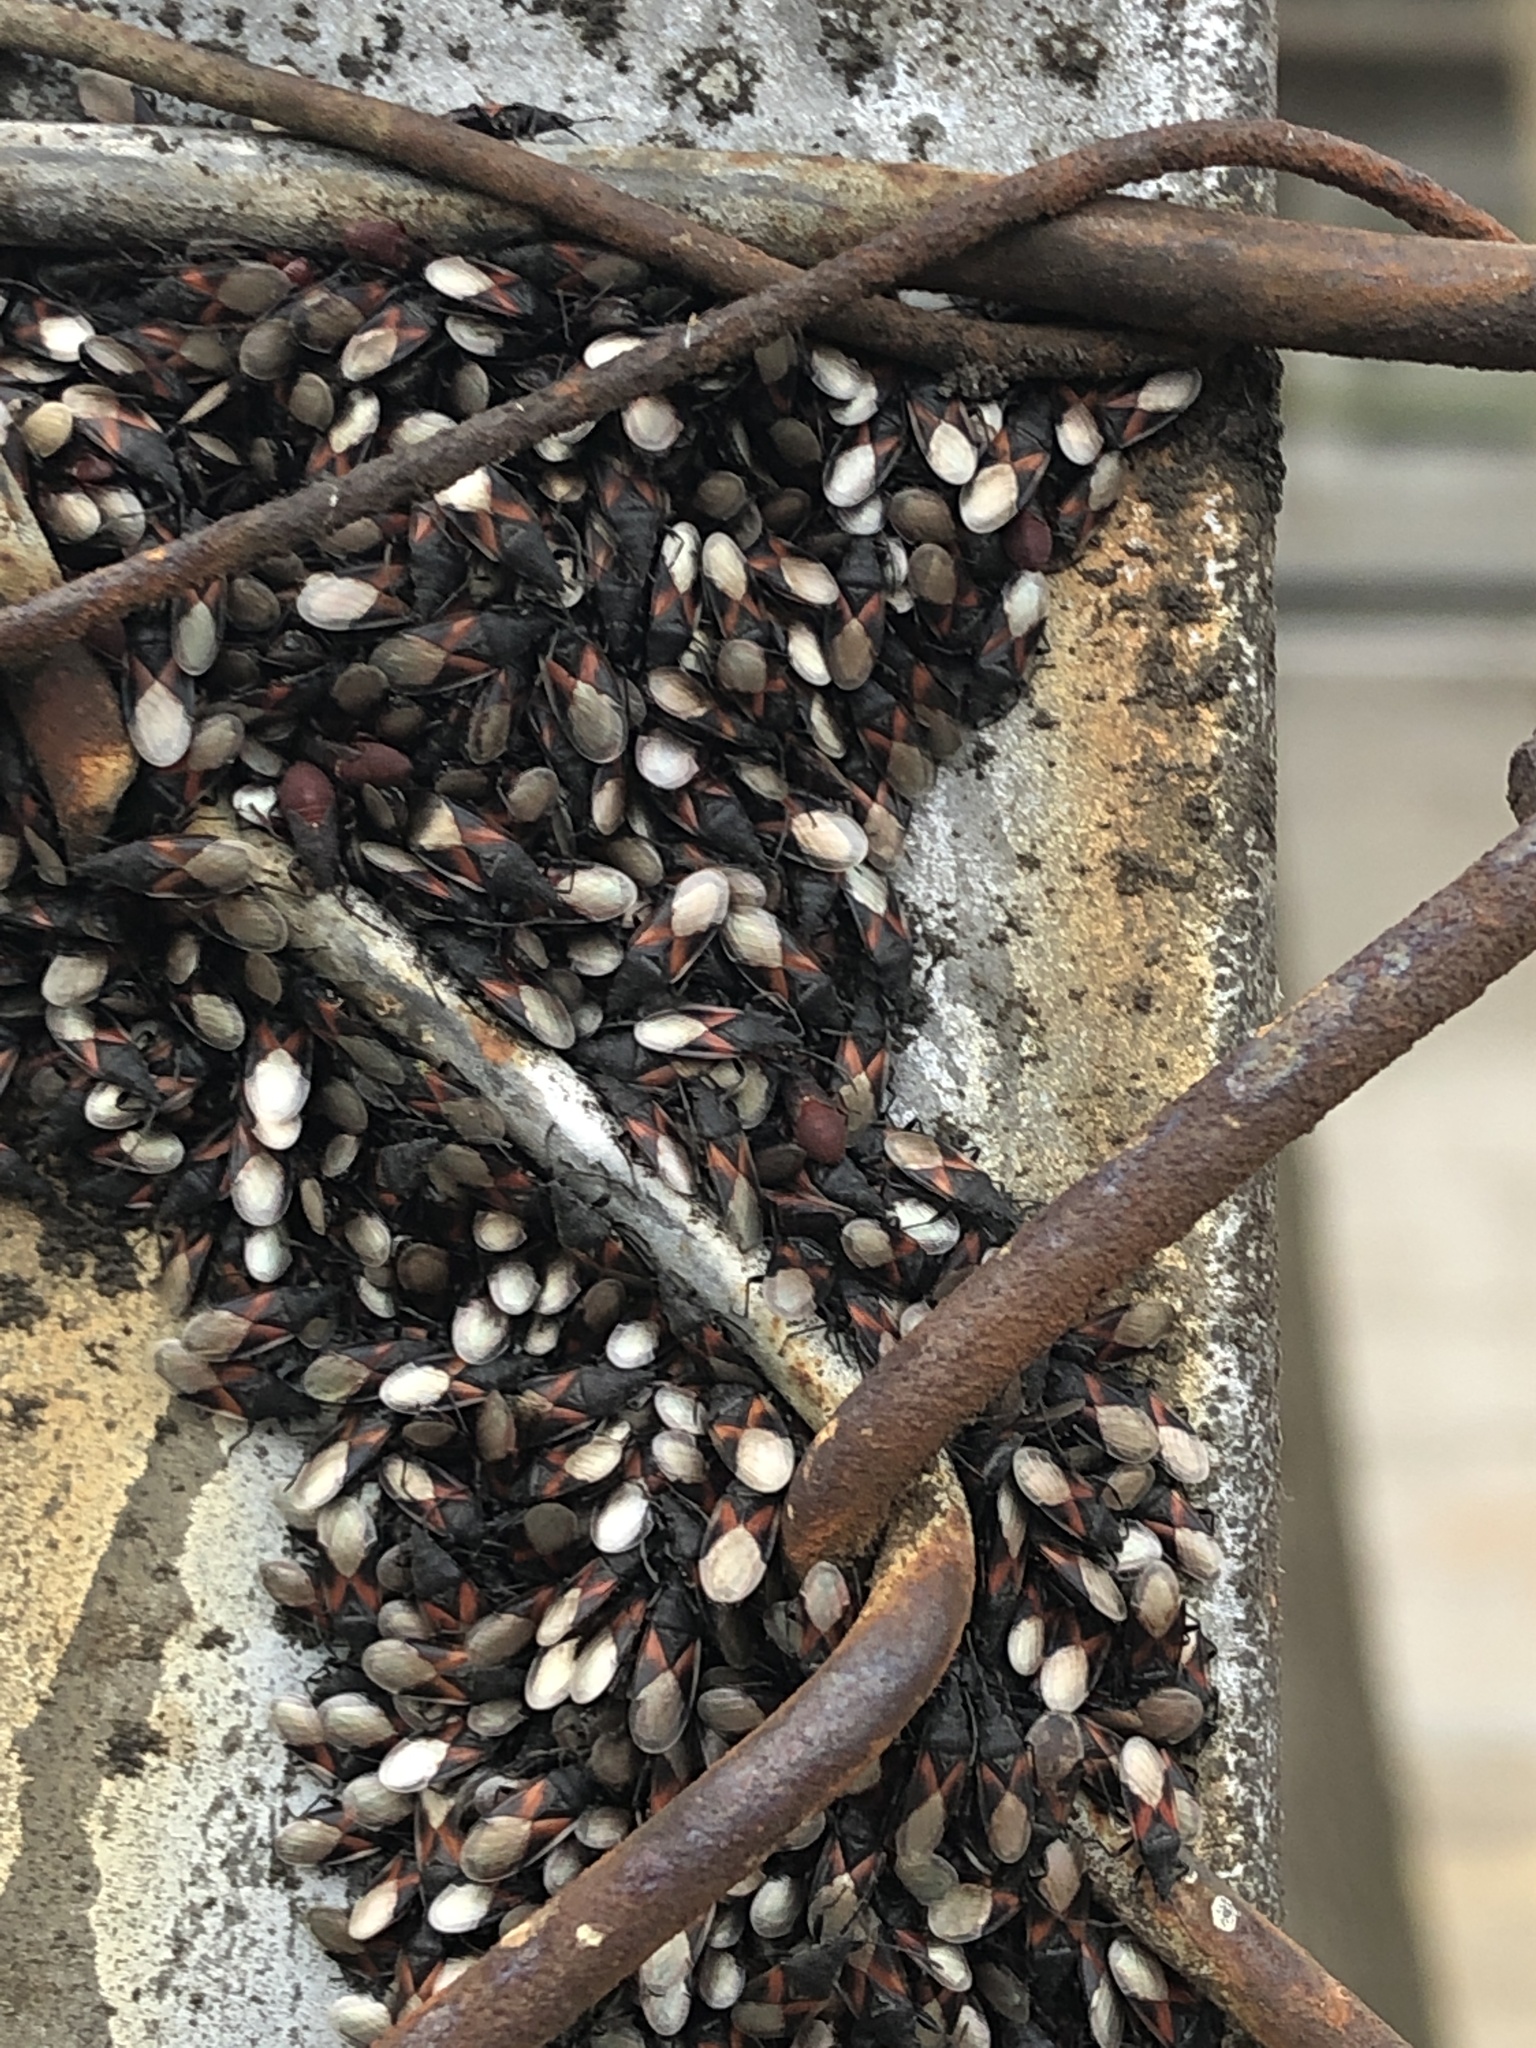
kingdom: Animalia
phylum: Arthropoda
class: Insecta
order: Hemiptera
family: Oxycarenidae
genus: Oxycarenus
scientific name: Oxycarenus lavaterae
